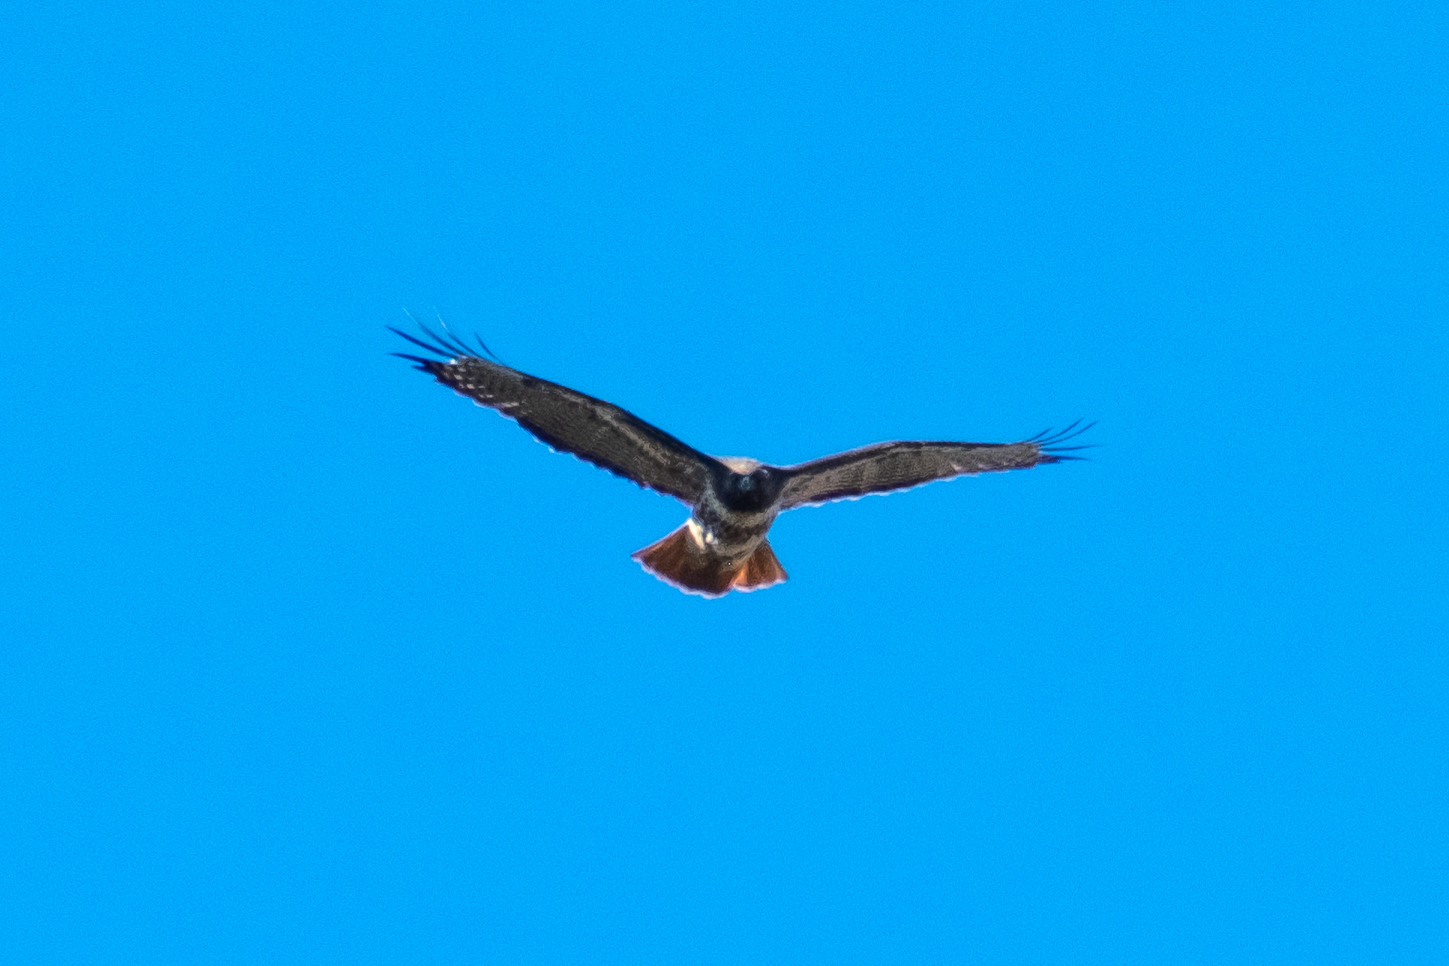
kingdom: Animalia
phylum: Chordata
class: Aves
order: Accipitriformes
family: Accipitridae
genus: Buteo
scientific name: Buteo jamaicensis
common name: Red-tailed hawk
